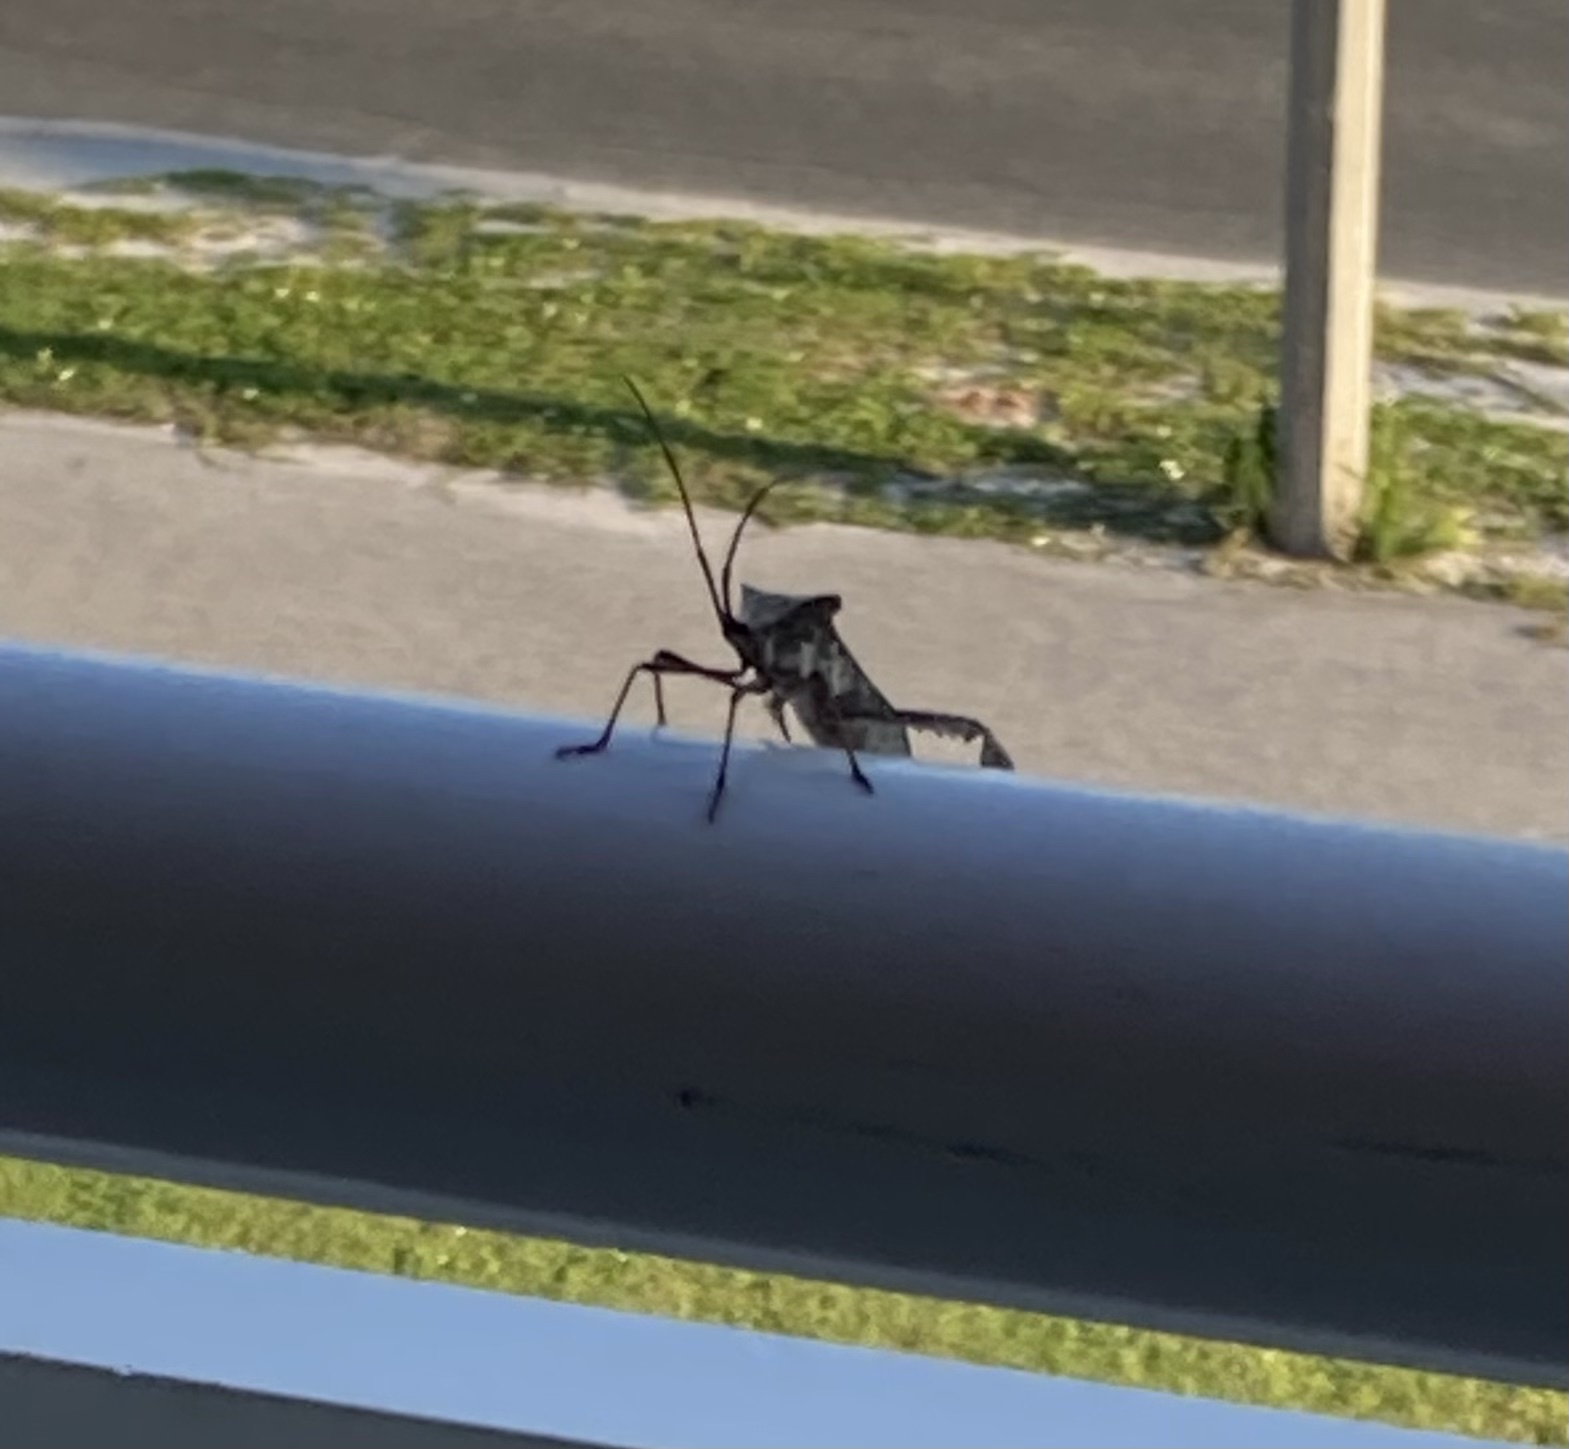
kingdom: Animalia
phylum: Arthropoda
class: Insecta
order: Hemiptera
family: Coreidae
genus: Acanthocephala
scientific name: Acanthocephala declivis
